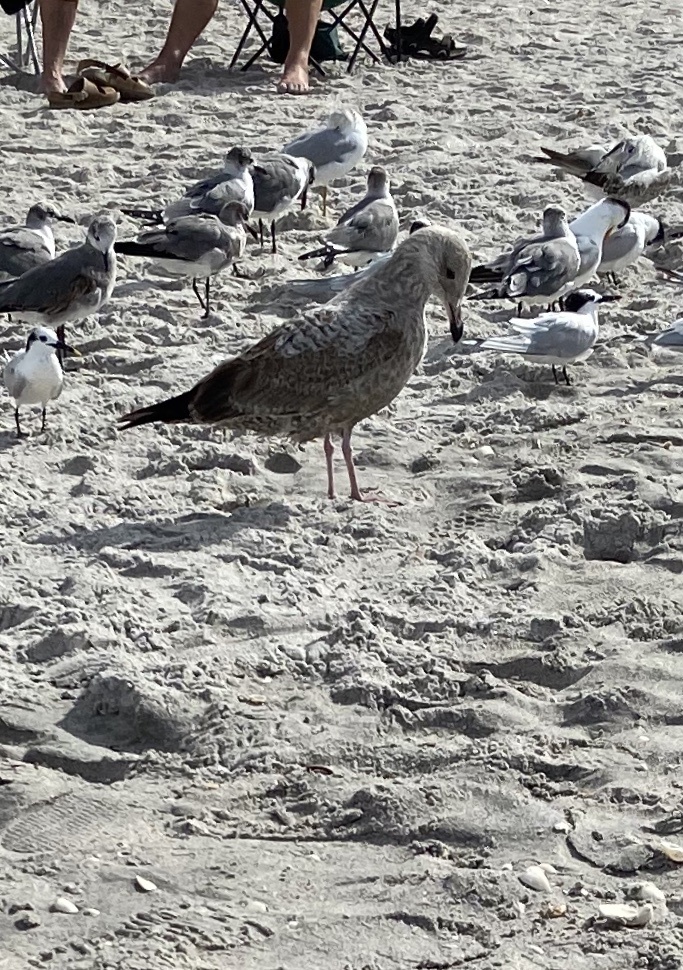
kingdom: Animalia
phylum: Chordata
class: Aves
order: Charadriiformes
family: Laridae
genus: Larus
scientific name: Larus argentatus
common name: Herring gull
